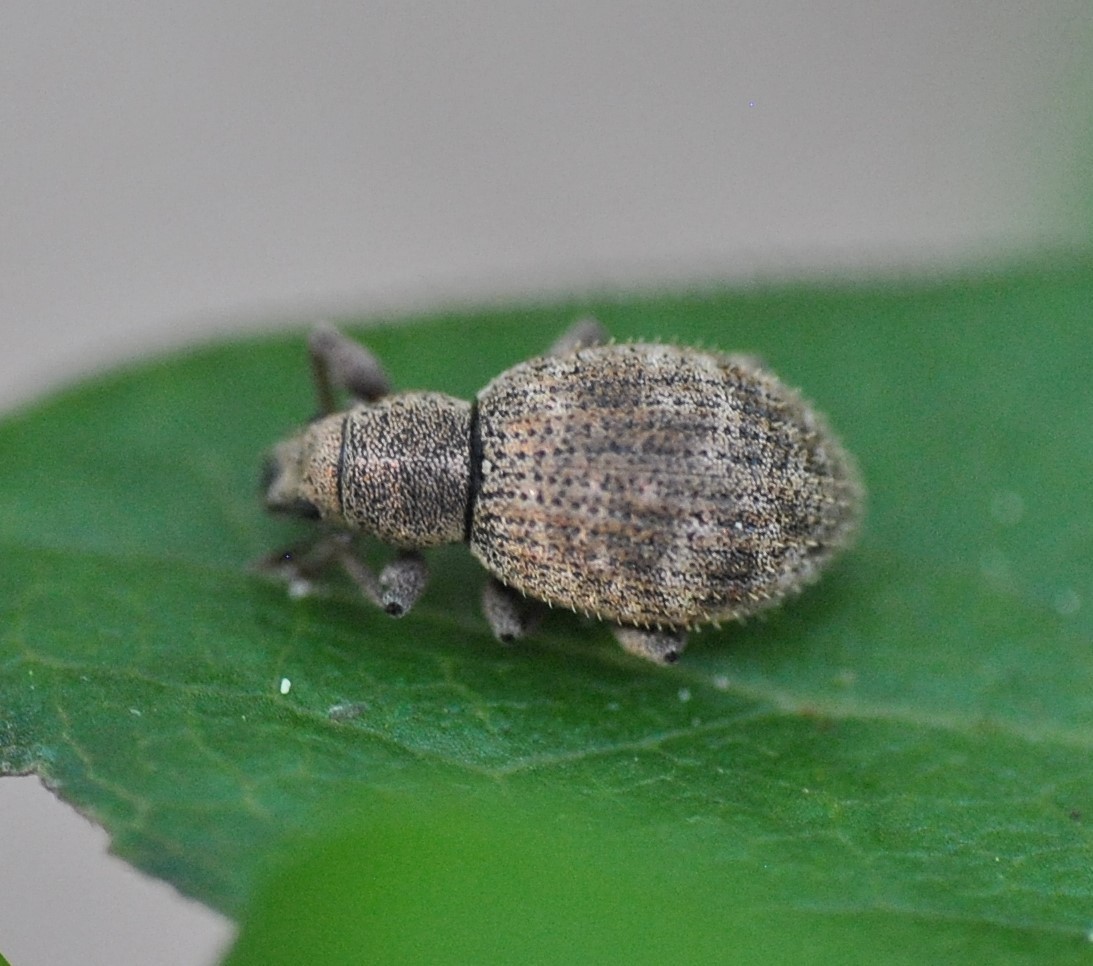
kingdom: Animalia
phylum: Arthropoda
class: Insecta
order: Coleoptera
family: Curculionidae
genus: Sciaphilus
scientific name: Sciaphilus asperatus
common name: Weevil
